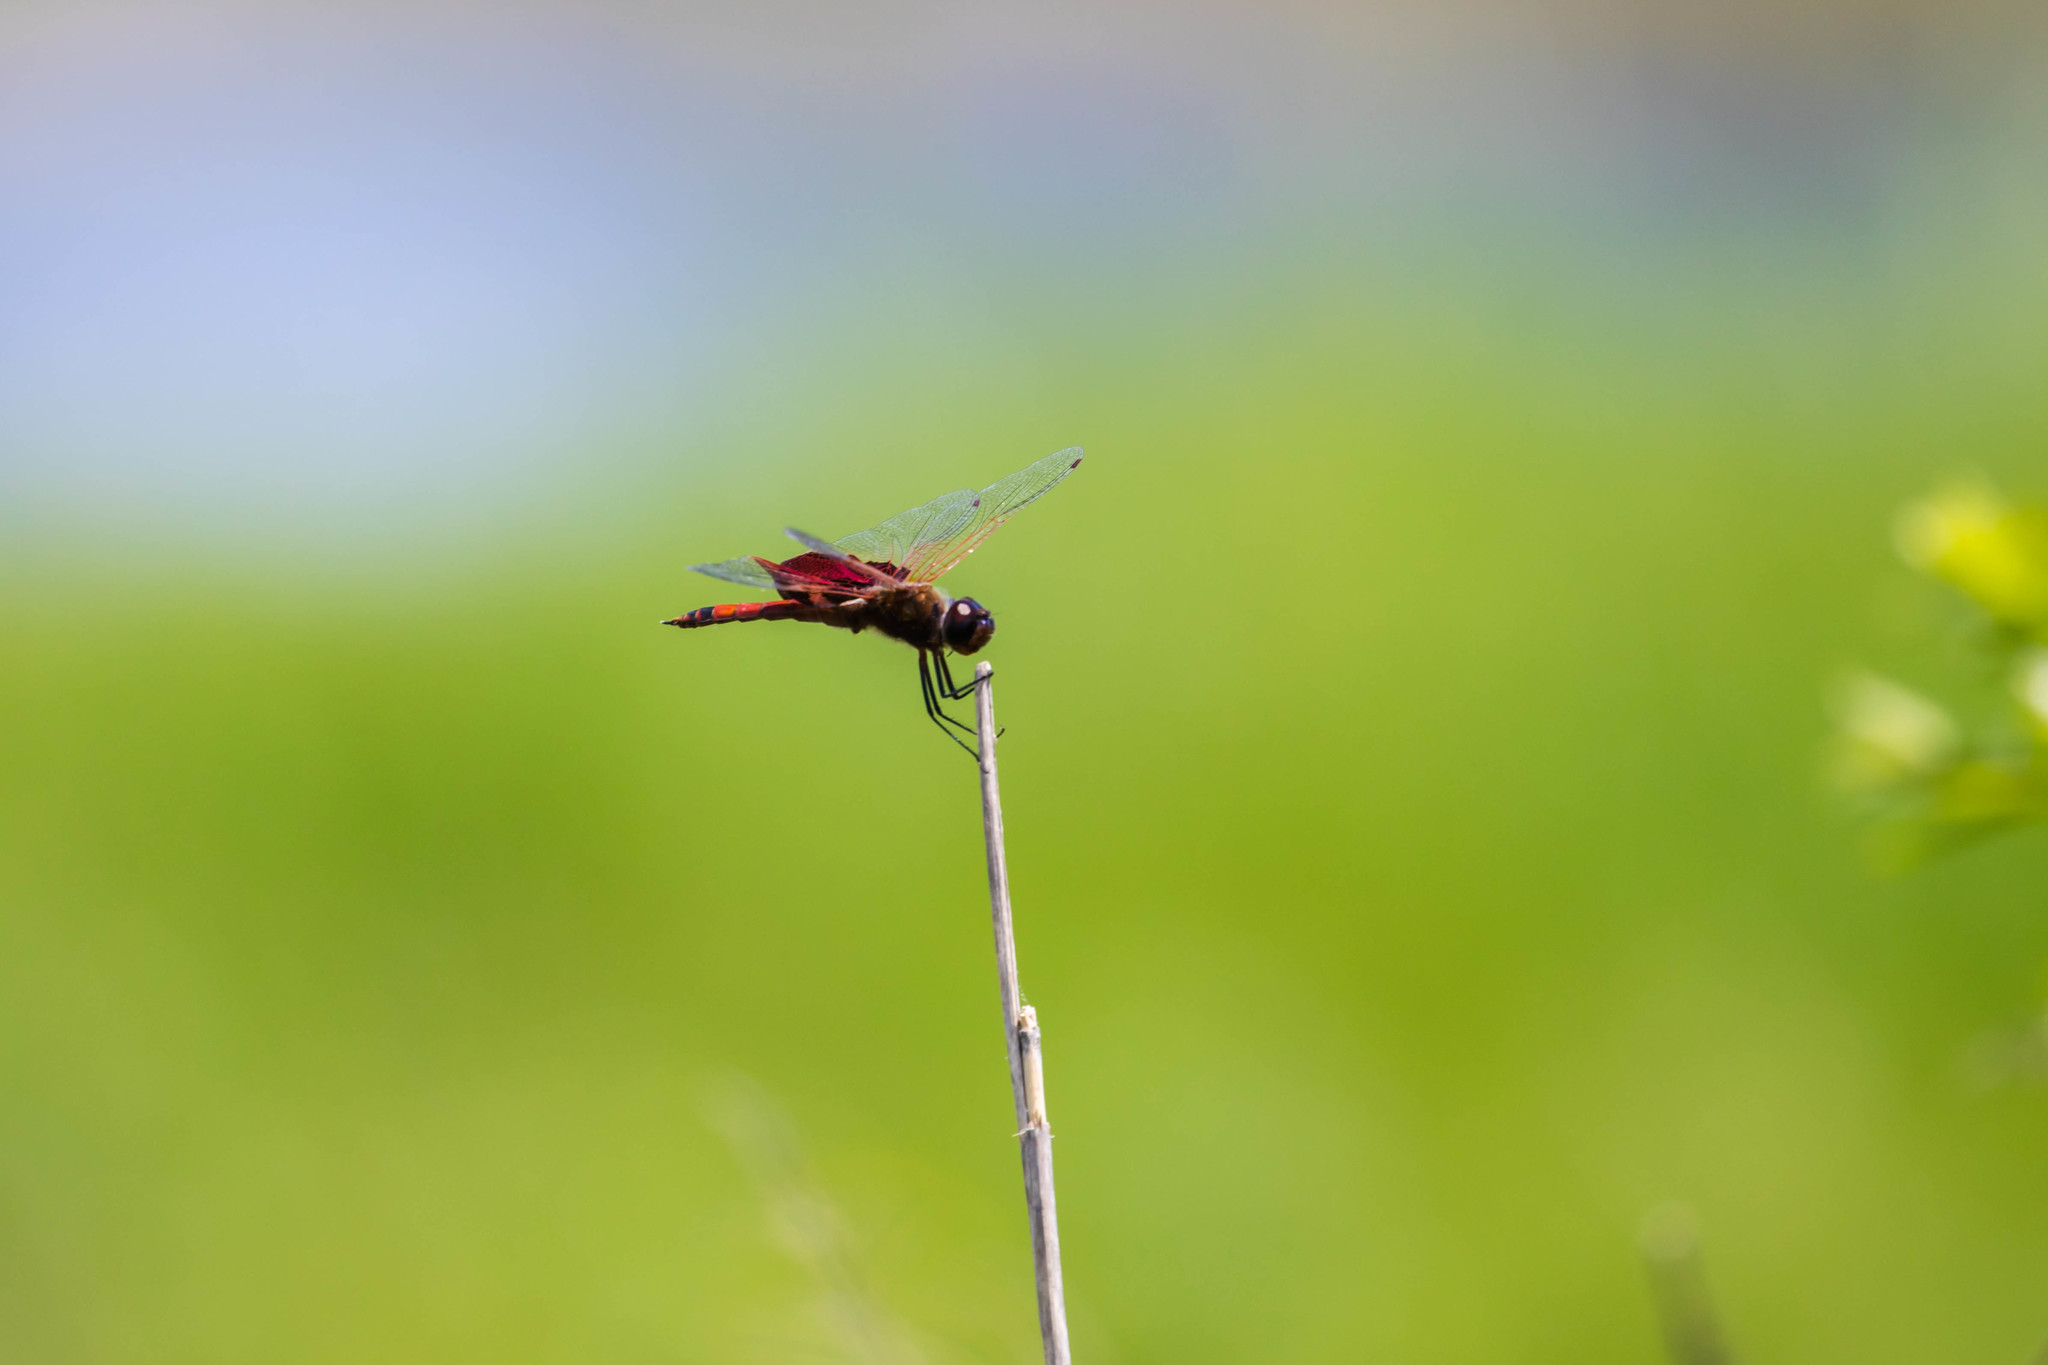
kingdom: Animalia
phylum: Arthropoda
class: Insecta
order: Odonata
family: Libellulidae
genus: Tramea
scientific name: Tramea carolina
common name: Carolina saddlebags
